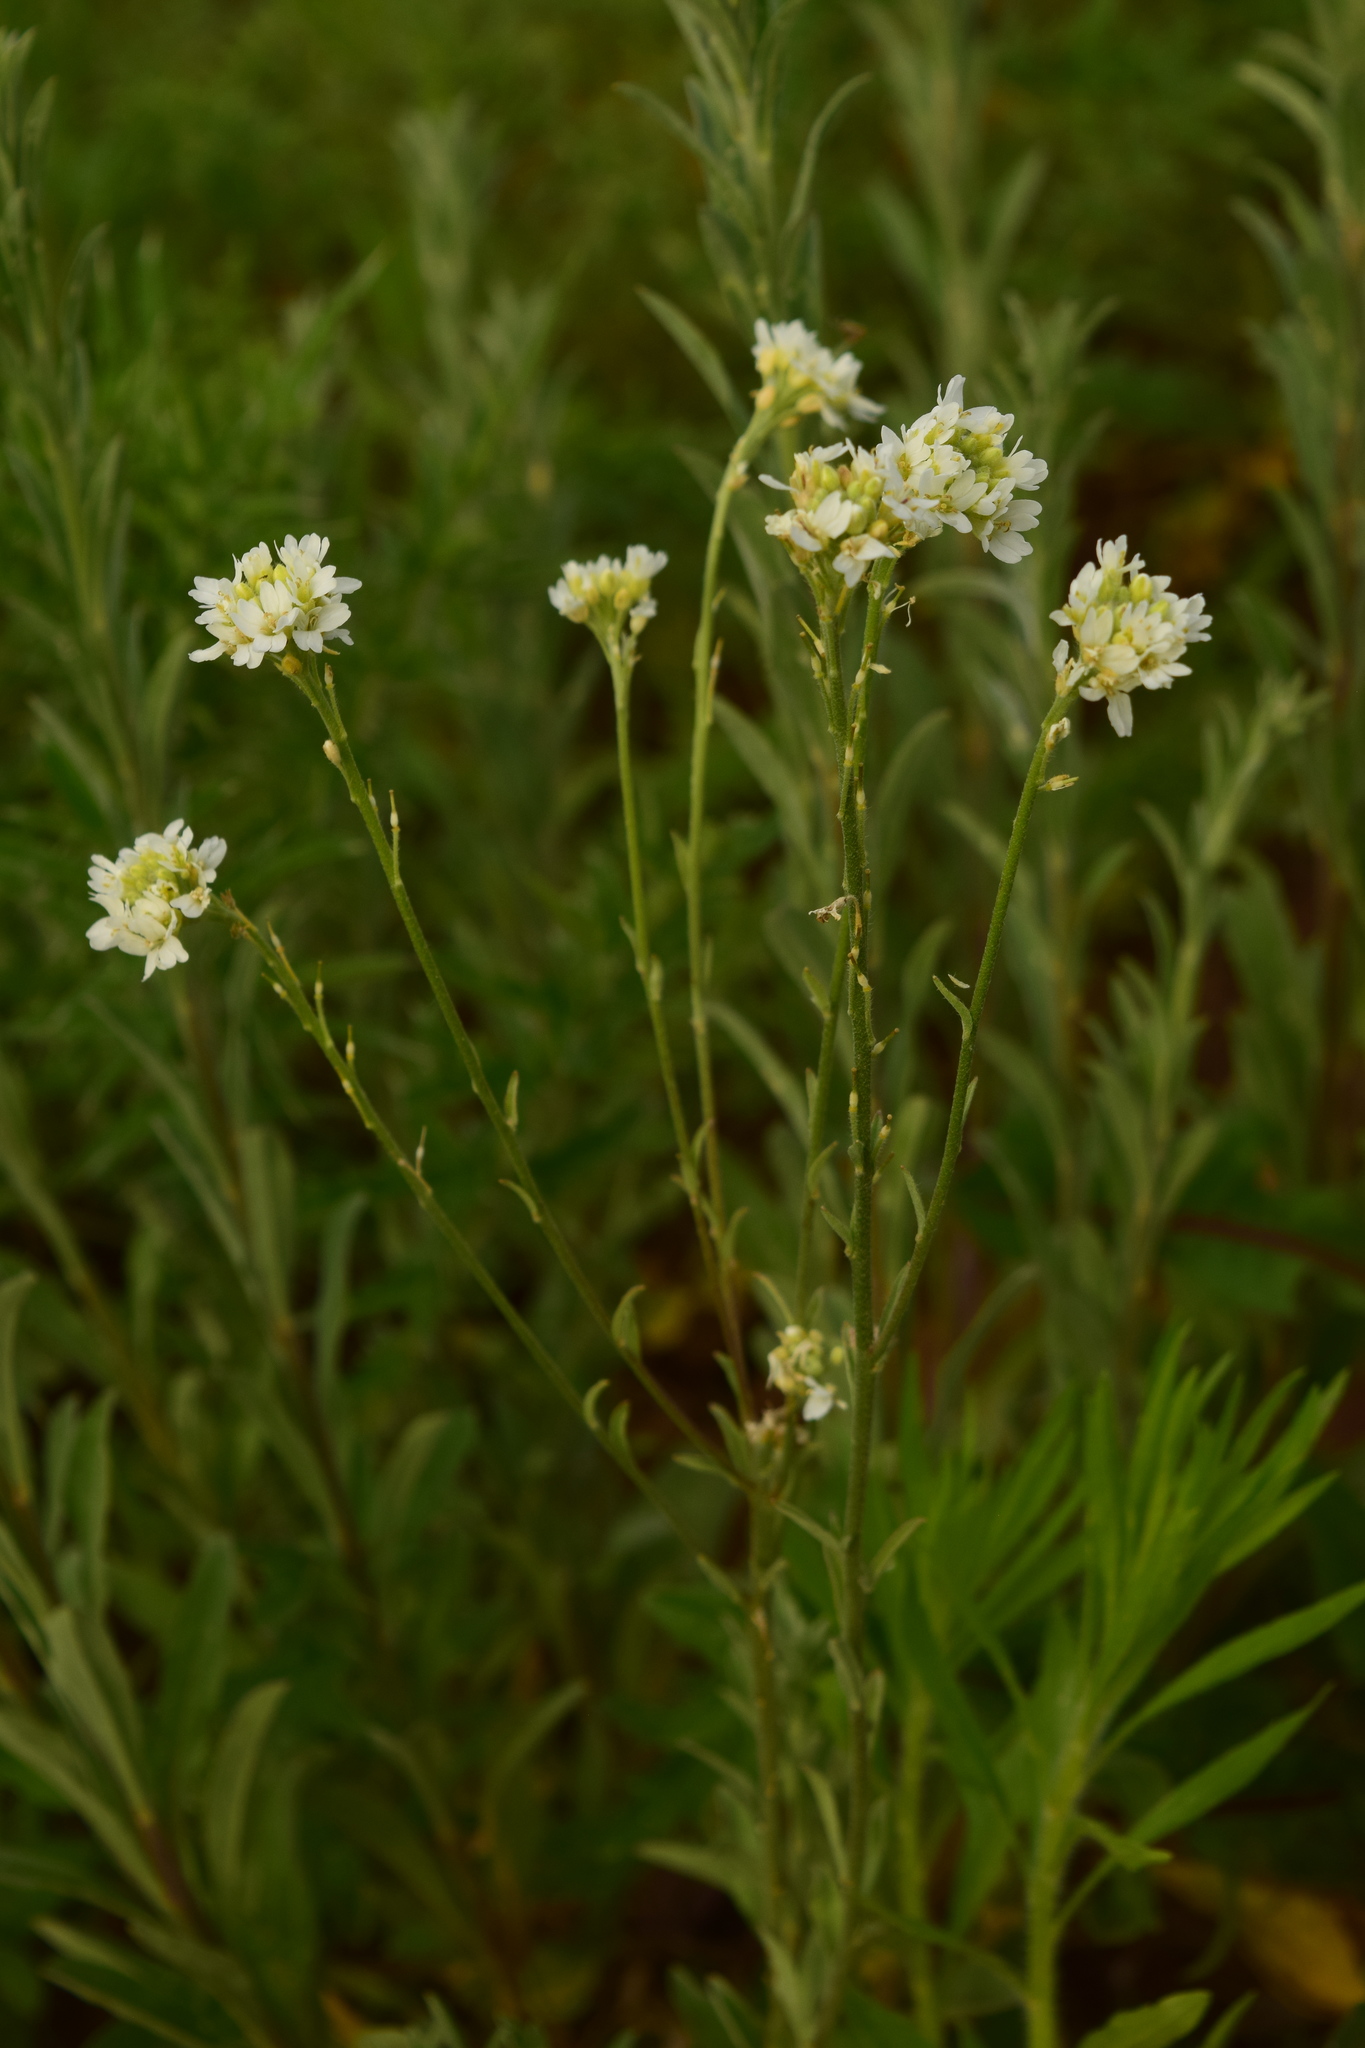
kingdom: Plantae
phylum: Tracheophyta
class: Magnoliopsida
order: Brassicales
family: Brassicaceae
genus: Berteroa
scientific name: Berteroa incana
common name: Hoary alison
